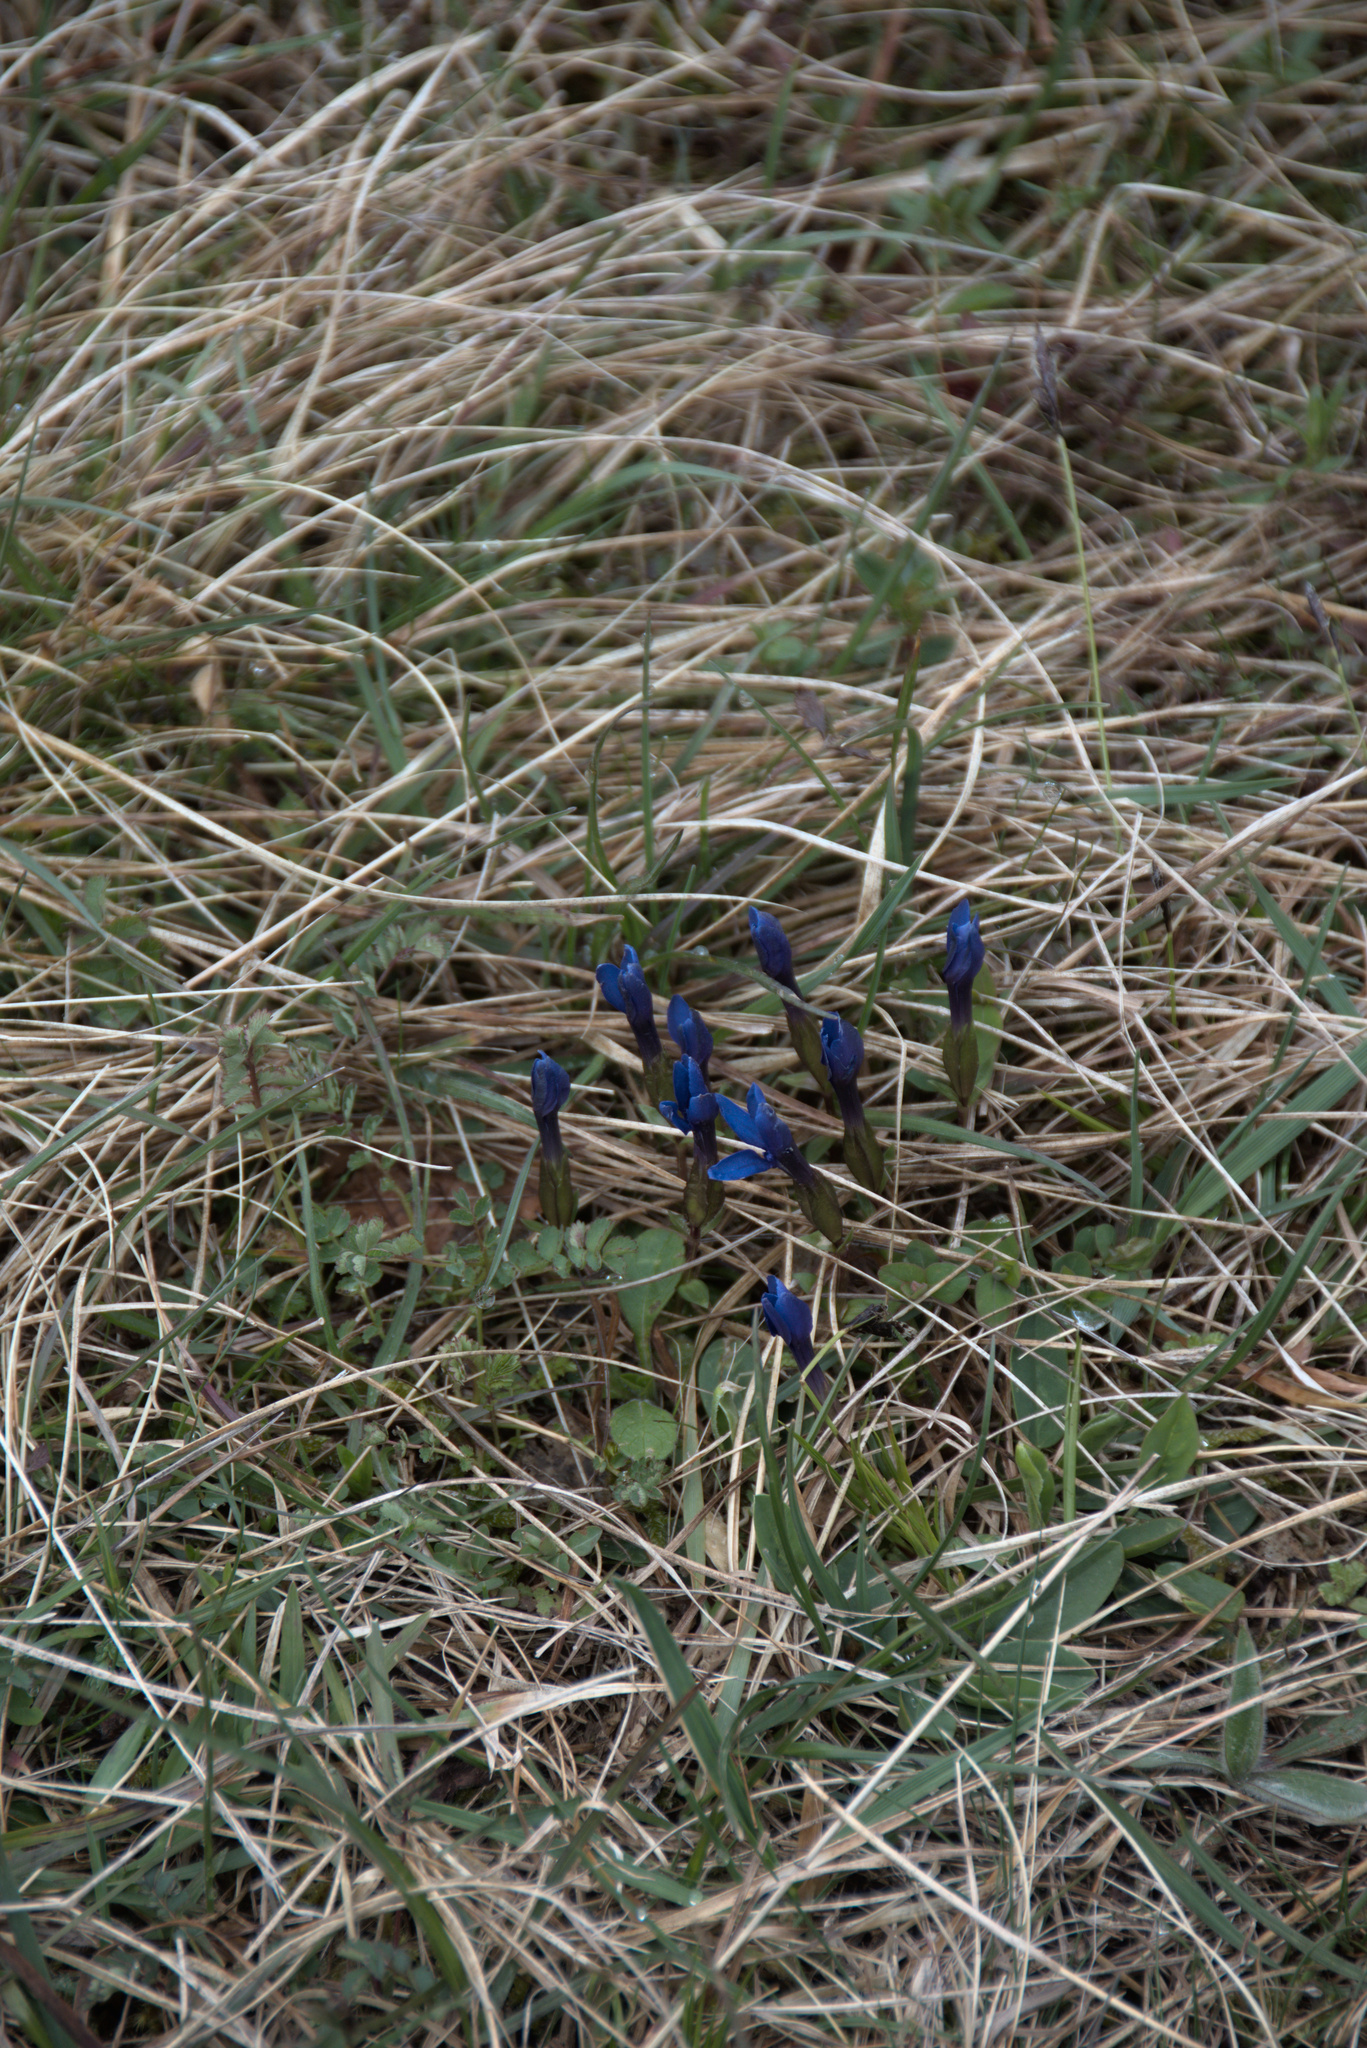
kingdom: Plantae
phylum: Tracheophyta
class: Magnoliopsida
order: Gentianales
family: Gentianaceae
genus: Gentiana
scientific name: Gentiana verna
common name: Spring gentian
